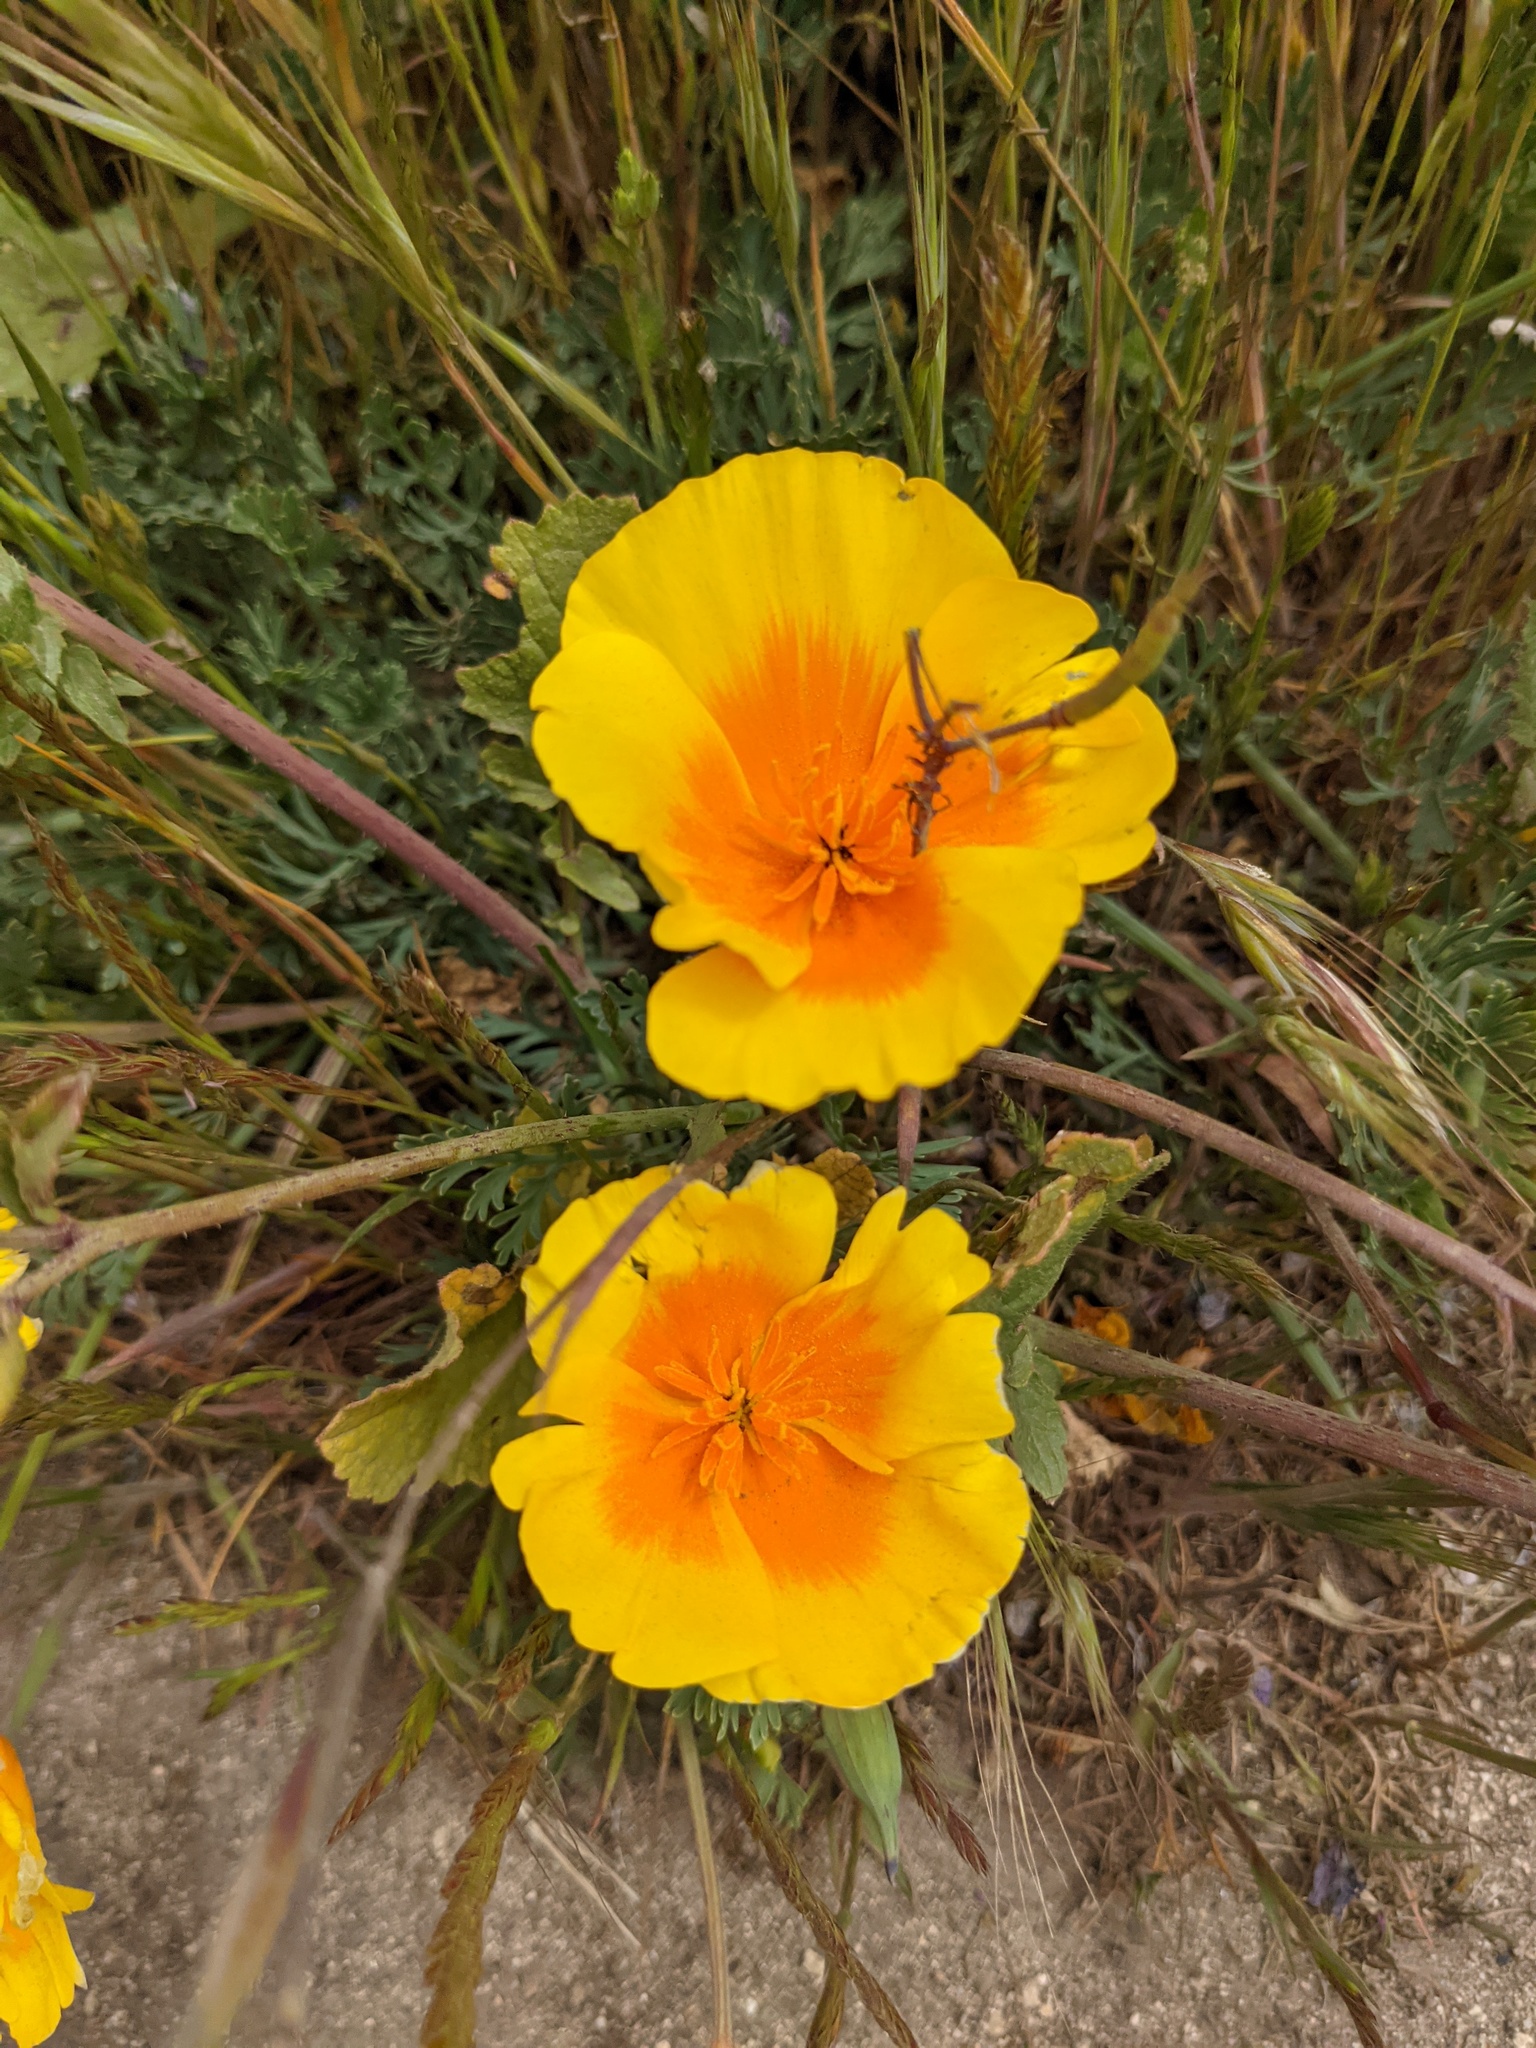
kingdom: Plantae
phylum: Tracheophyta
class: Magnoliopsida
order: Ranunculales
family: Papaveraceae
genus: Eschscholzia
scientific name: Eschscholzia californica
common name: California poppy
